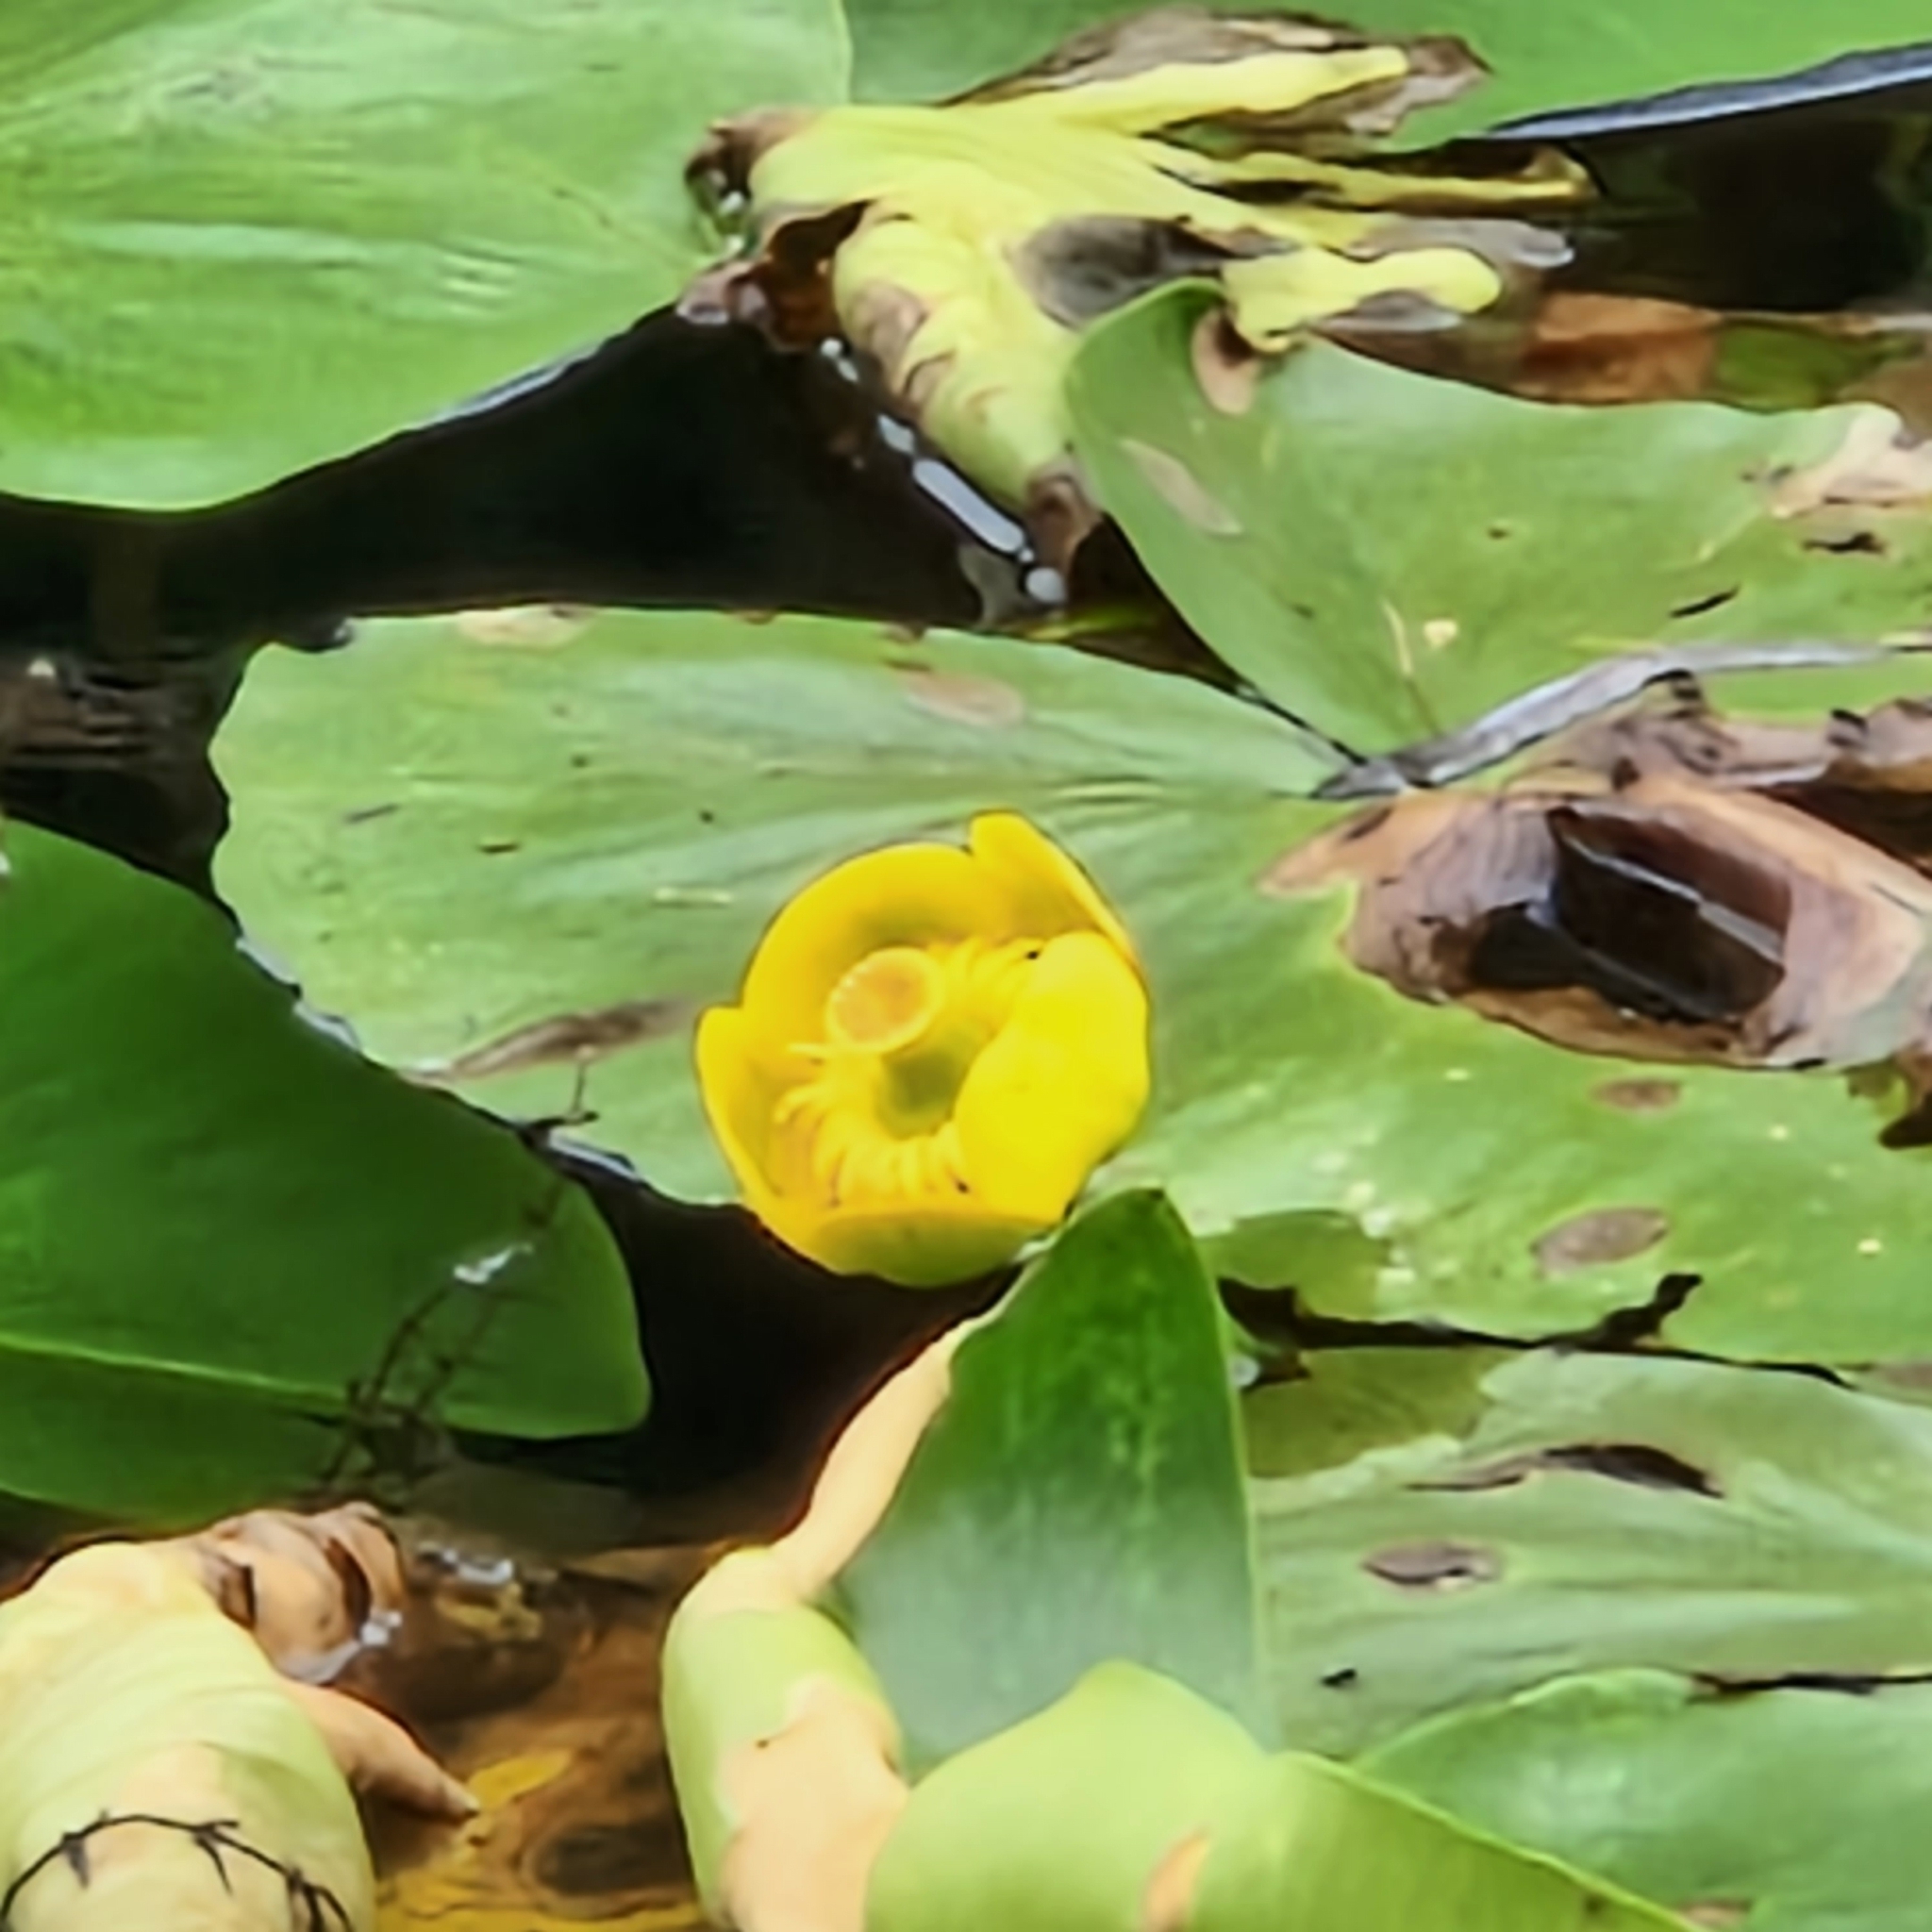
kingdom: Plantae
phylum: Tracheophyta
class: Magnoliopsida
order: Nymphaeales
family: Nymphaeaceae
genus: Nuphar
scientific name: Nuphar lutea
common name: Yellow water-lily
